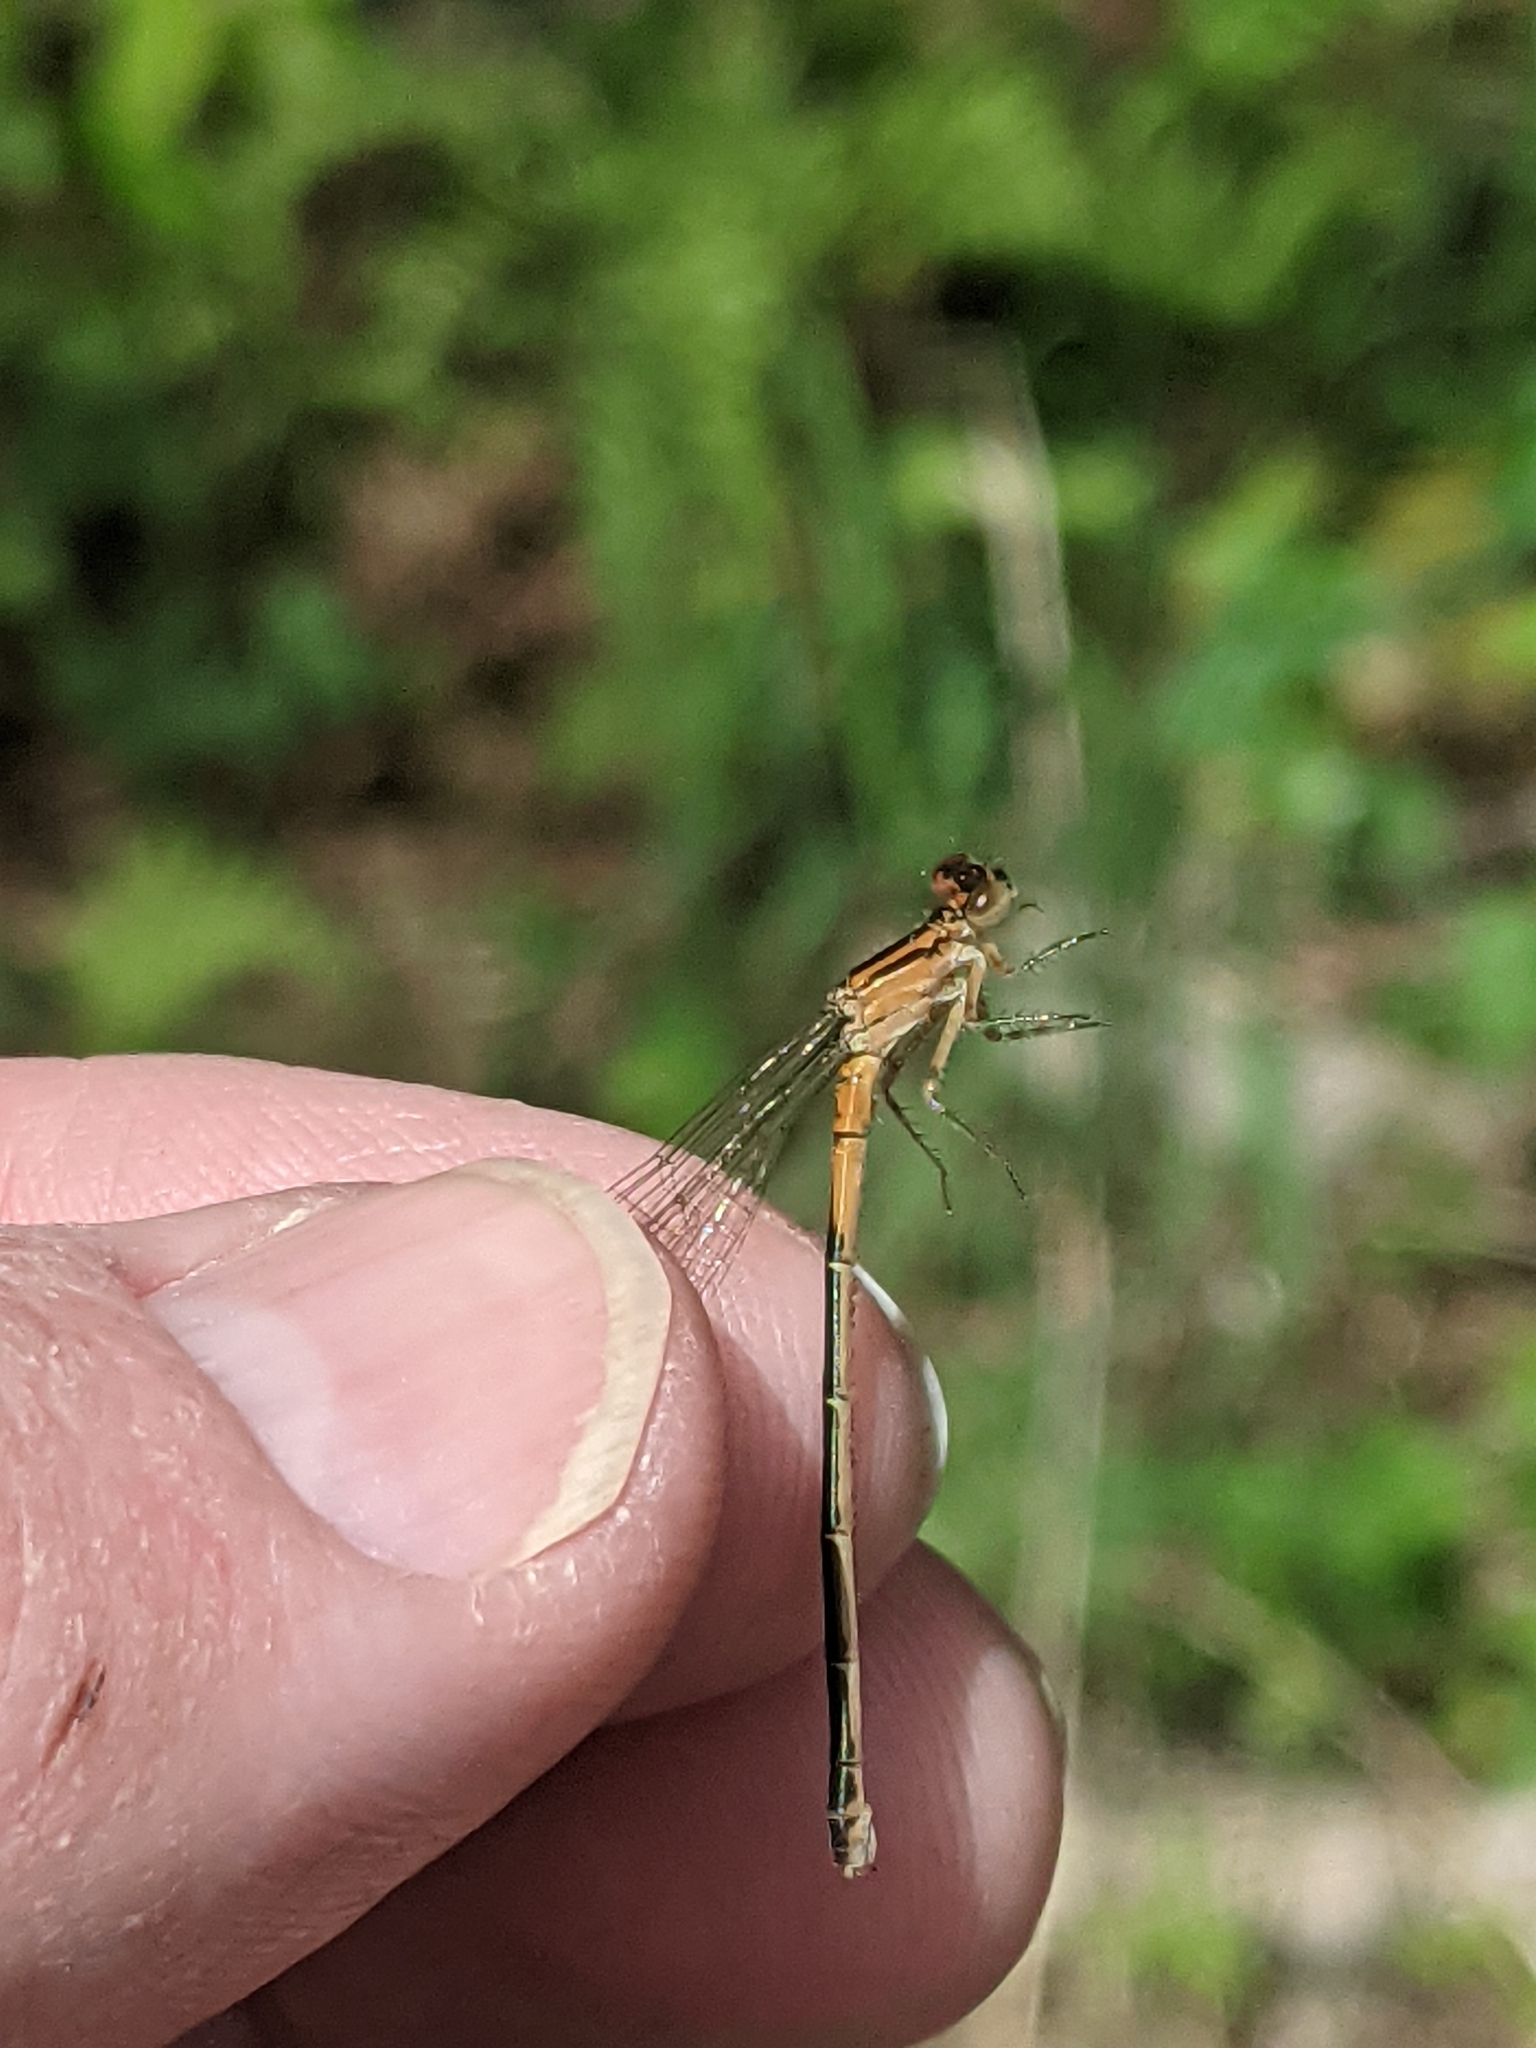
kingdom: Animalia
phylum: Arthropoda
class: Insecta
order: Odonata
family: Coenagrionidae
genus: Ischnura
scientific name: Ischnura verticalis
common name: Eastern forktail
